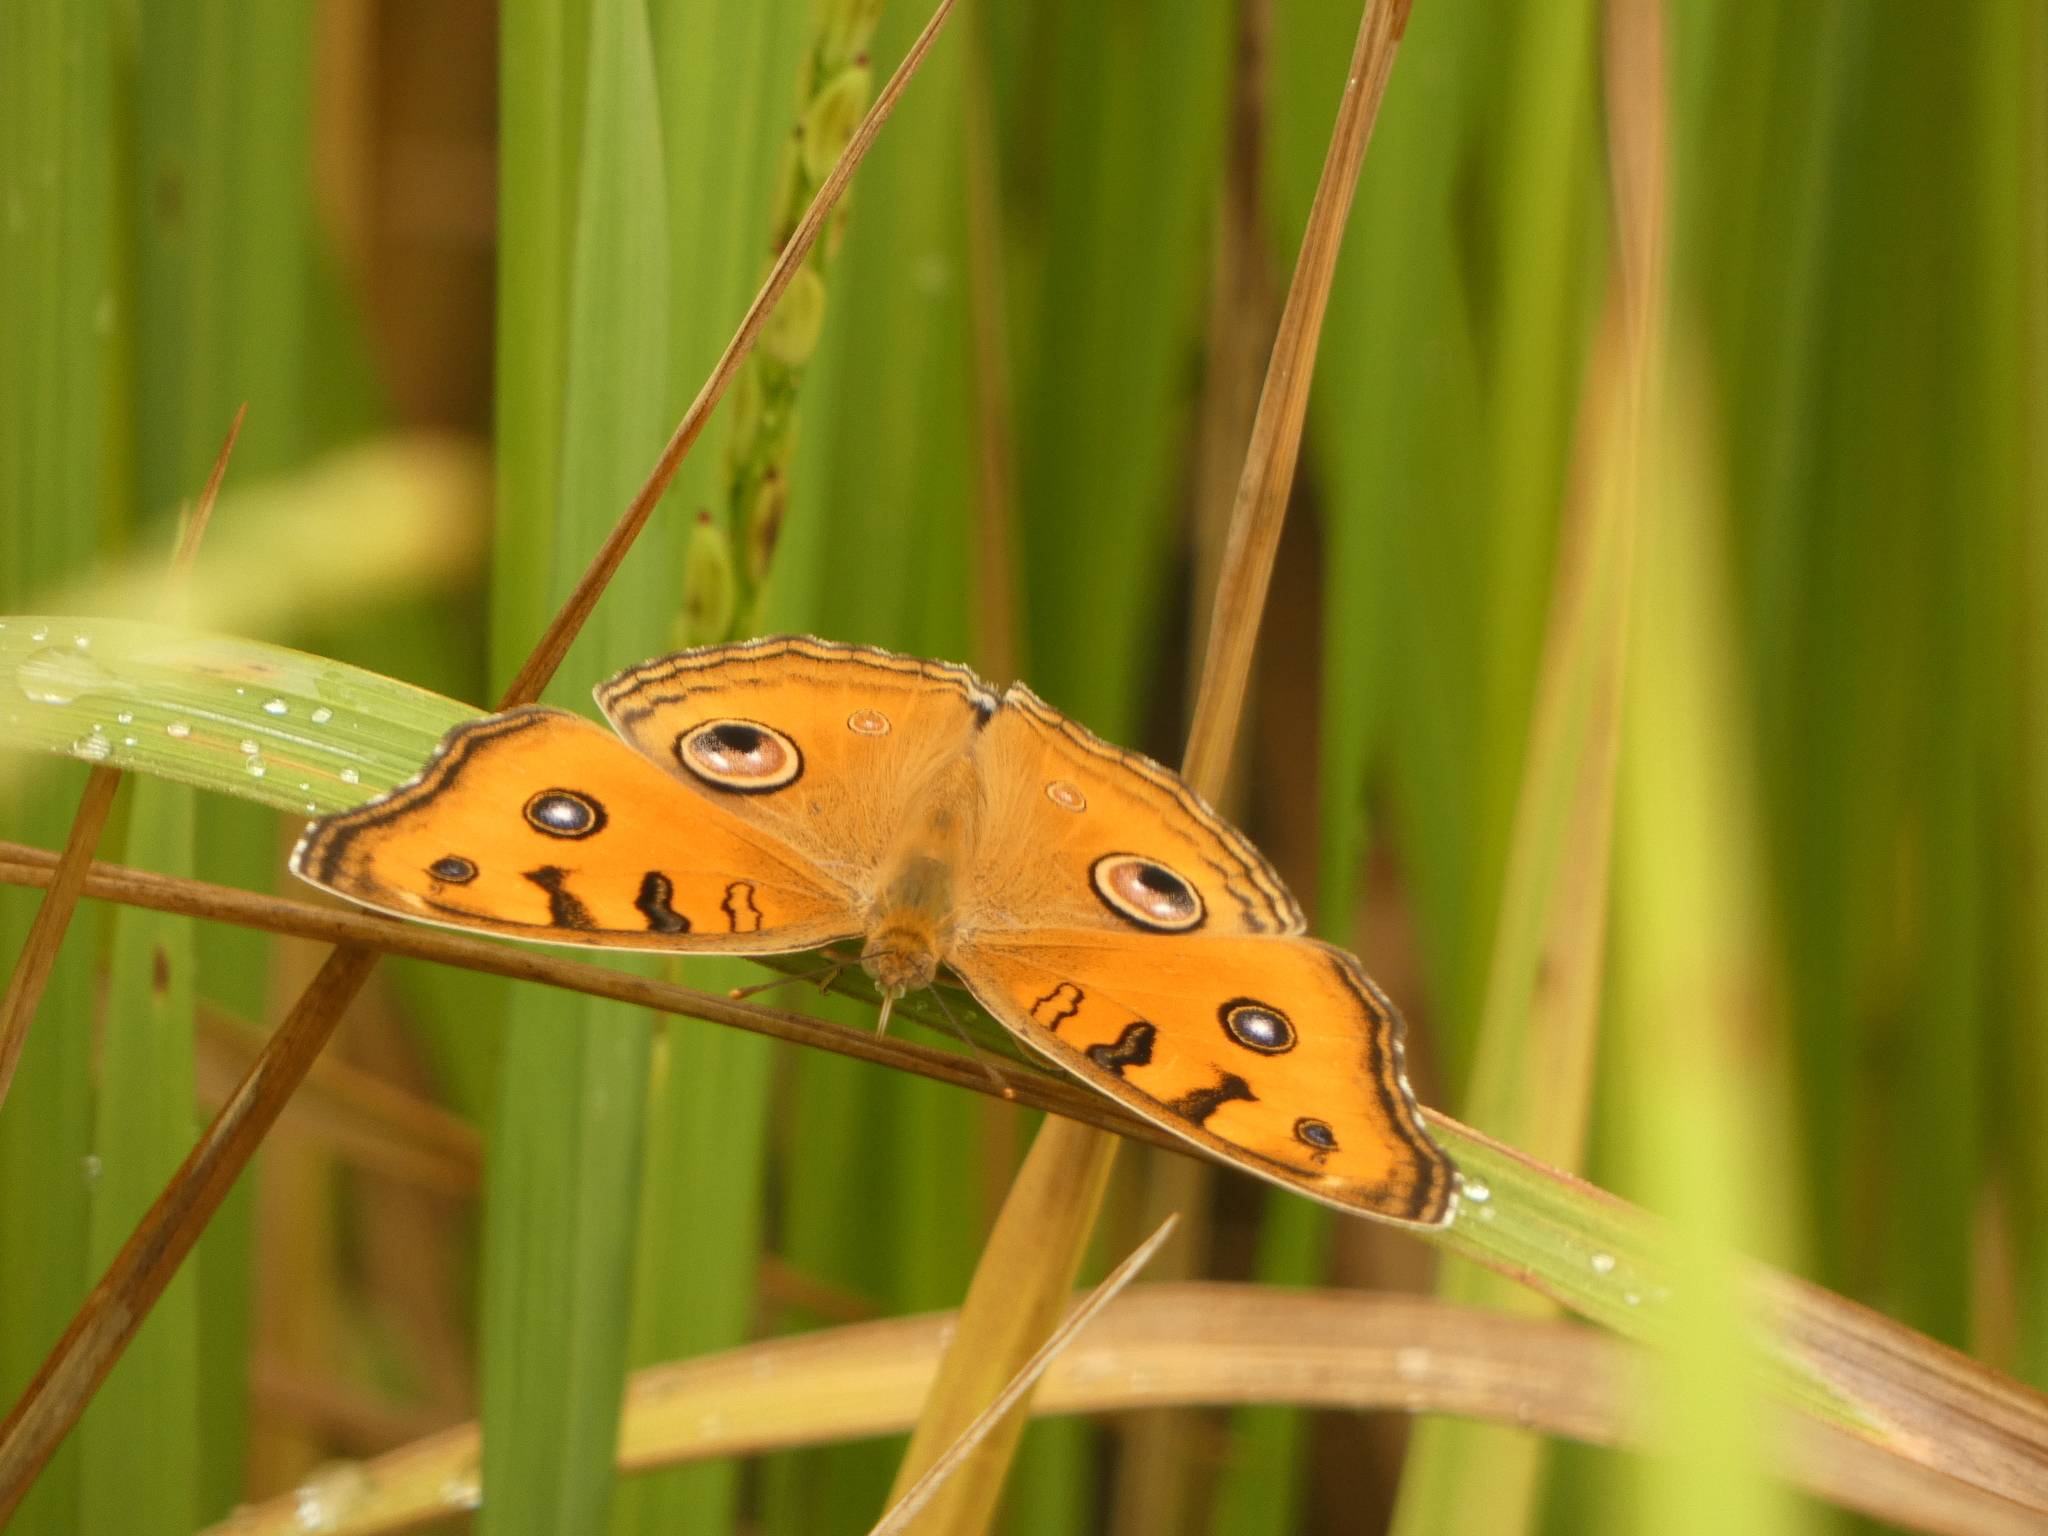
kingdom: Animalia
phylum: Arthropoda
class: Insecta
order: Lepidoptera
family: Nymphalidae
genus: Junonia
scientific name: Junonia almana
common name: Peacock pansy
